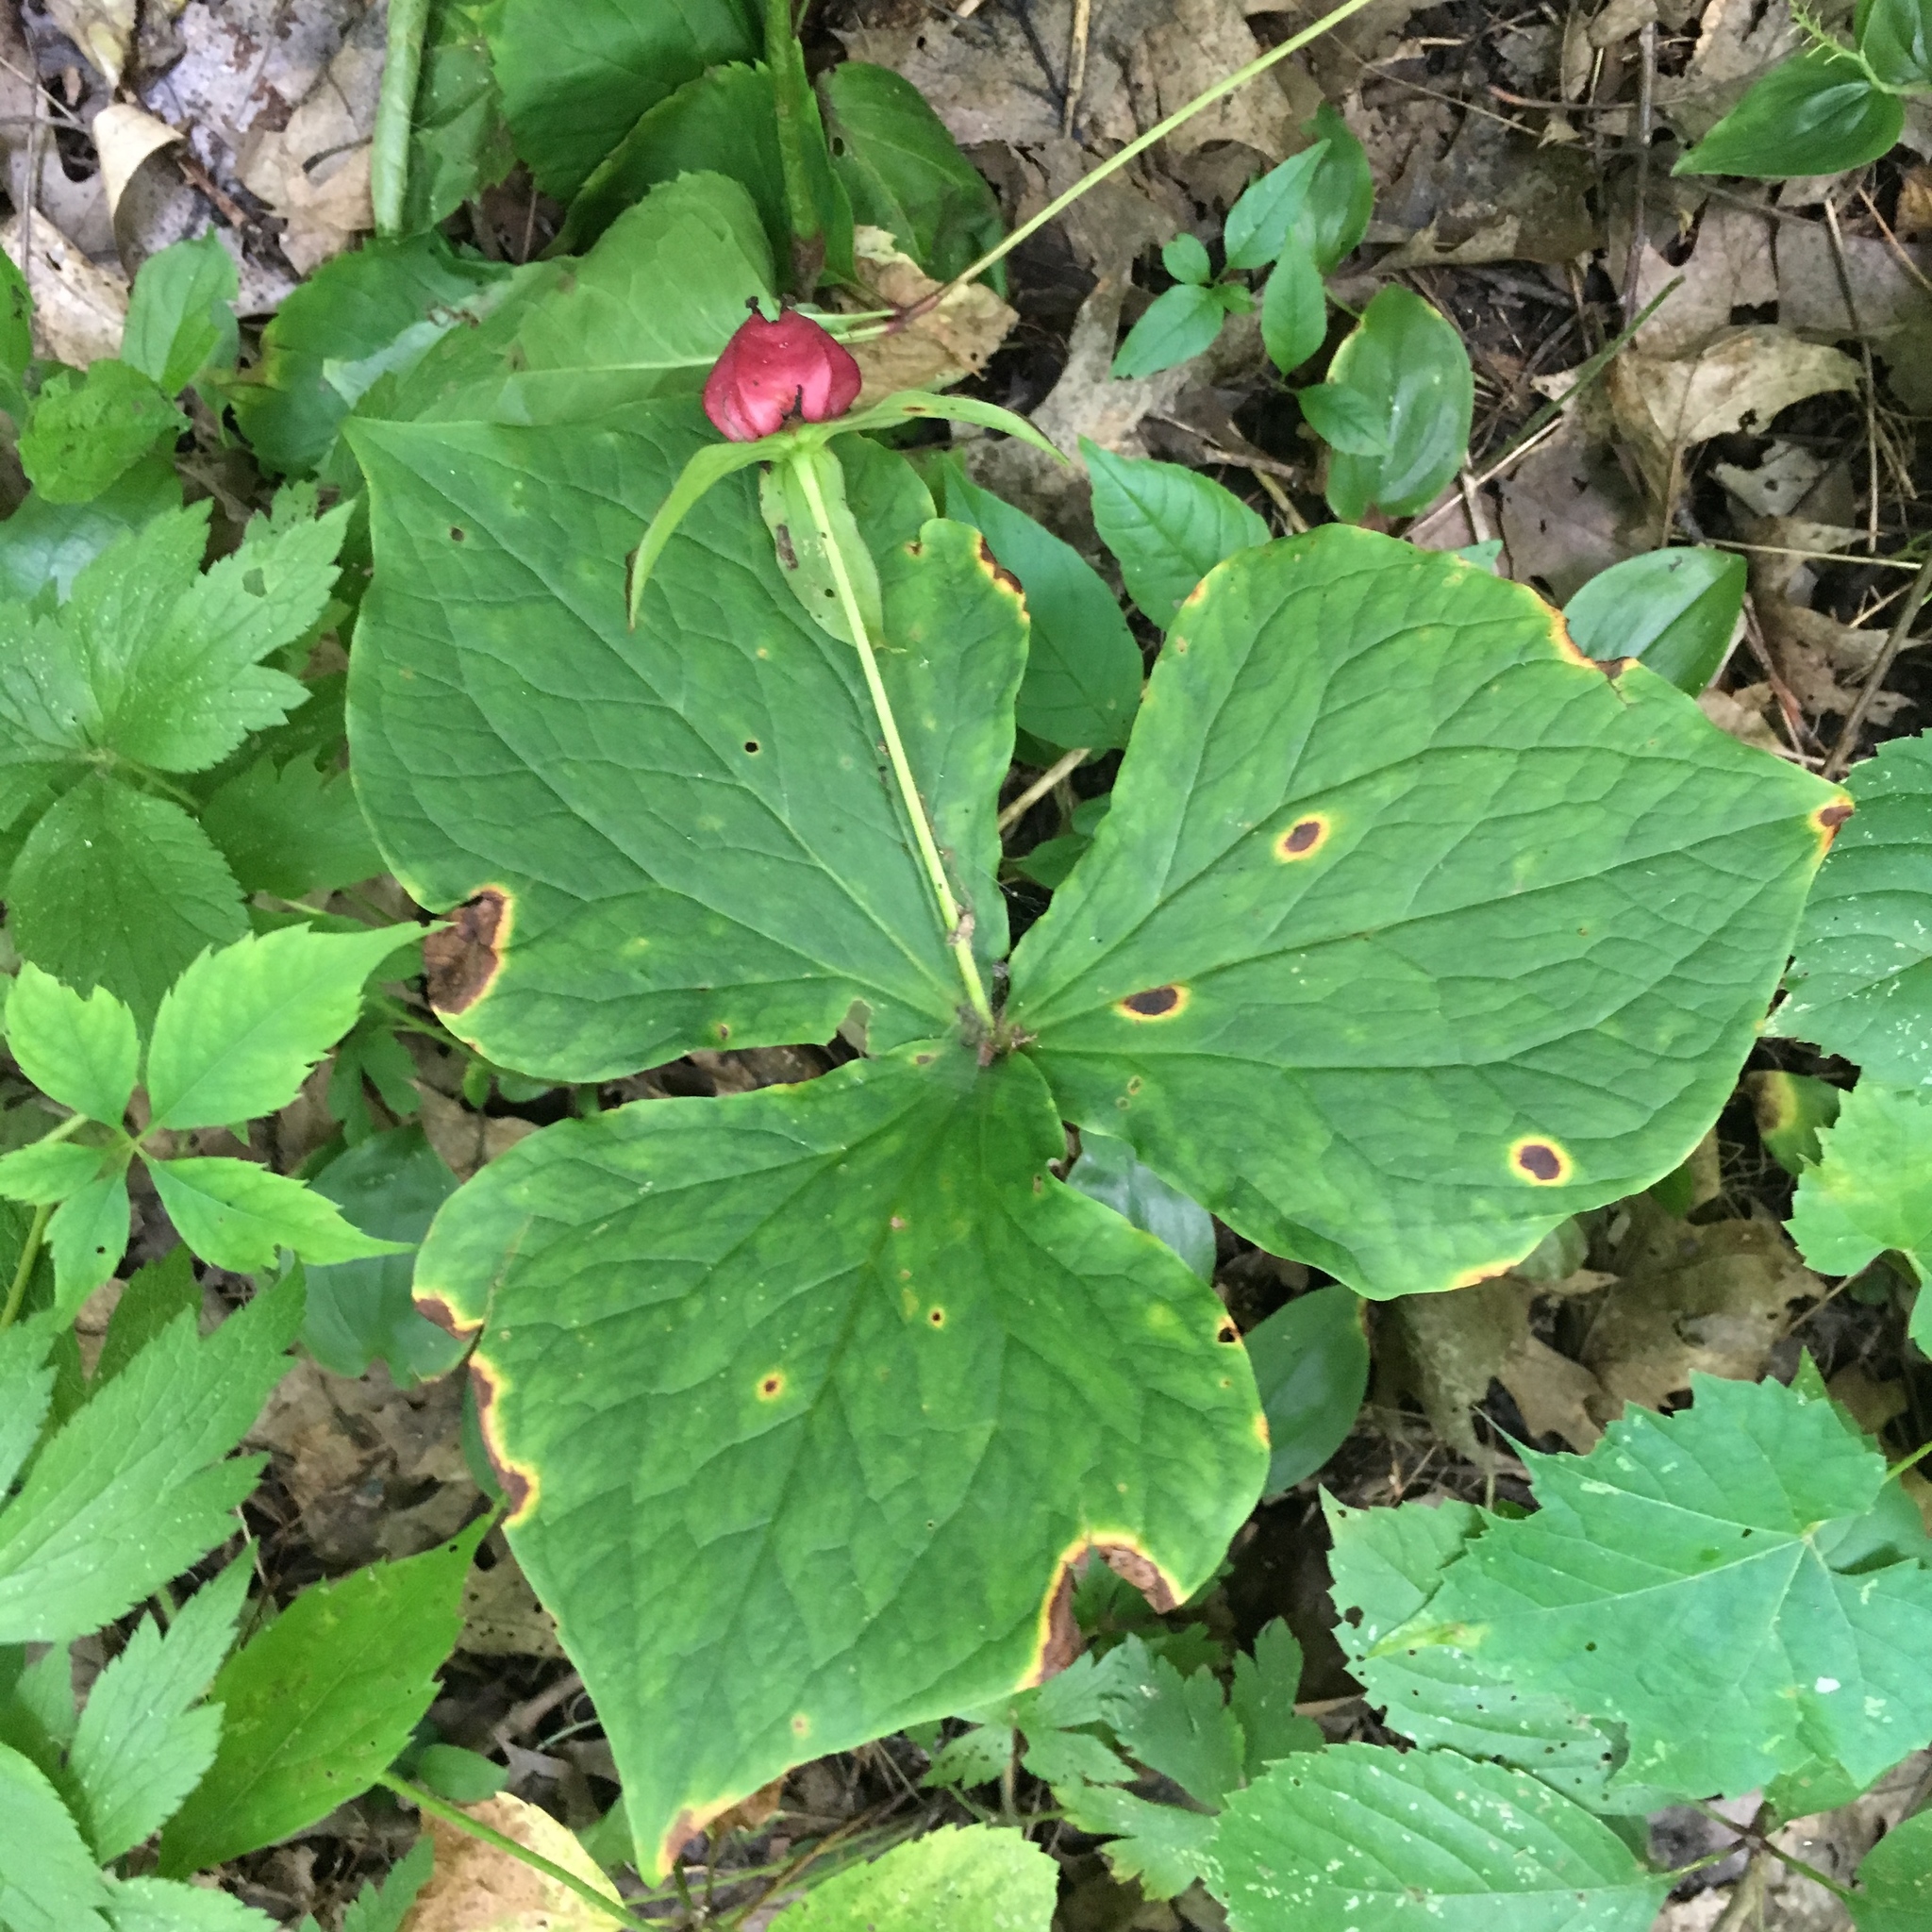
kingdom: Plantae
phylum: Tracheophyta
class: Liliopsida
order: Liliales
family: Melanthiaceae
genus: Trillium
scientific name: Trillium erectum
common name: Purple trillium
